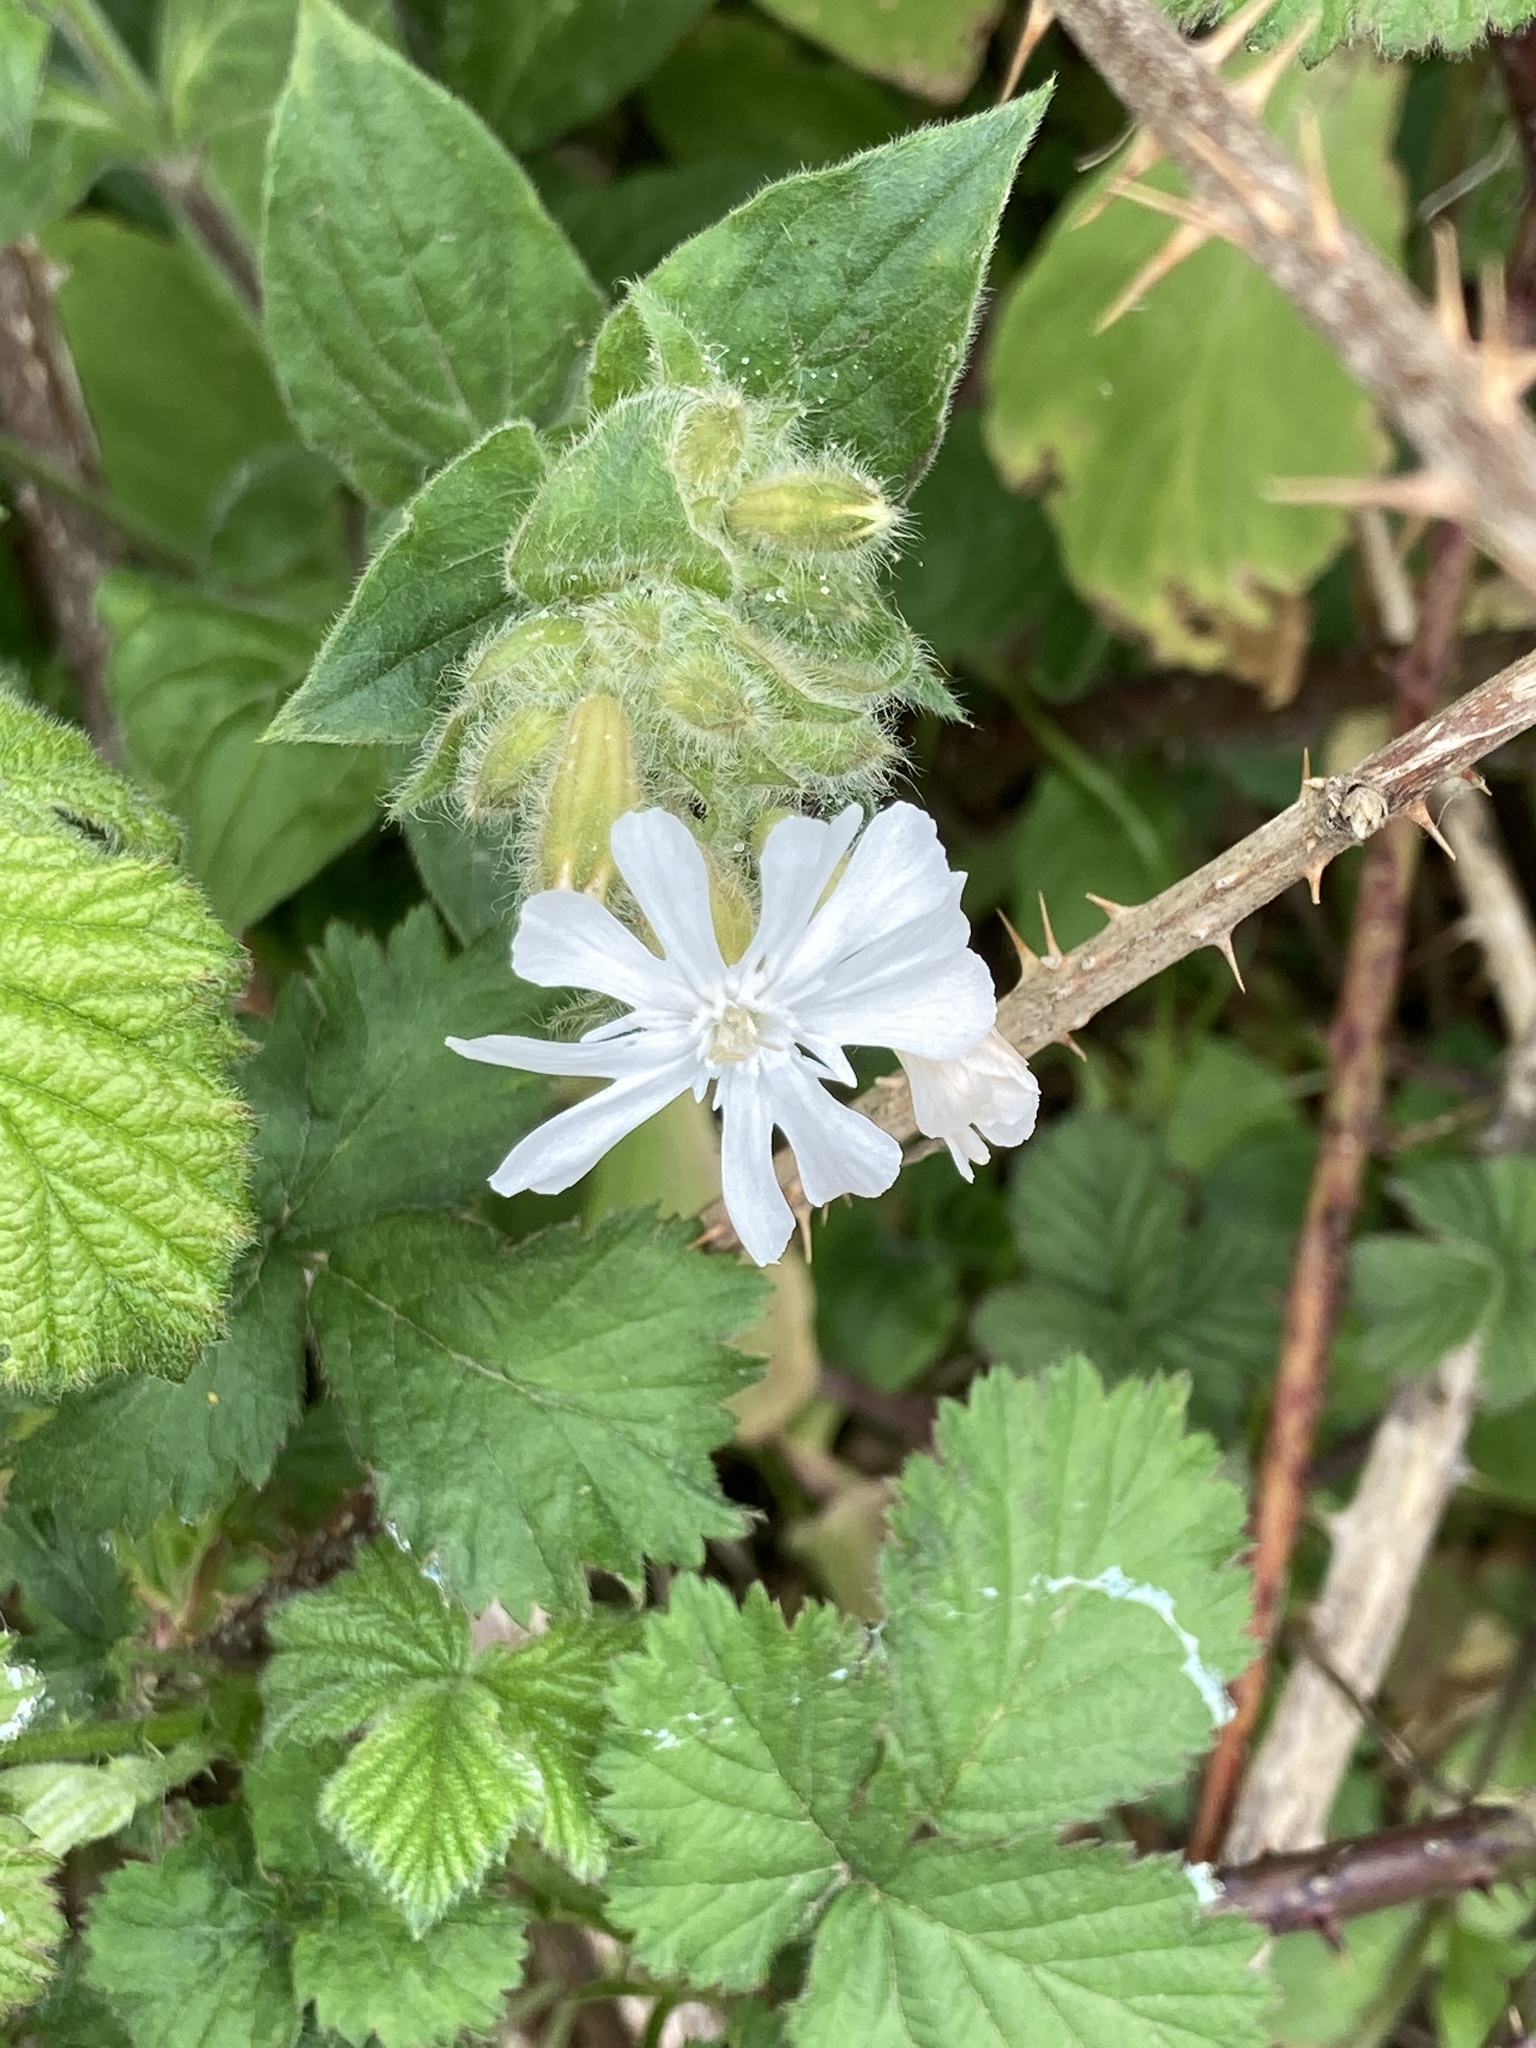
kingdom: Plantae
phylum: Tracheophyta
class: Magnoliopsida
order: Caryophyllales
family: Caryophyllaceae
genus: Silene
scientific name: Silene latifolia
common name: White campion
